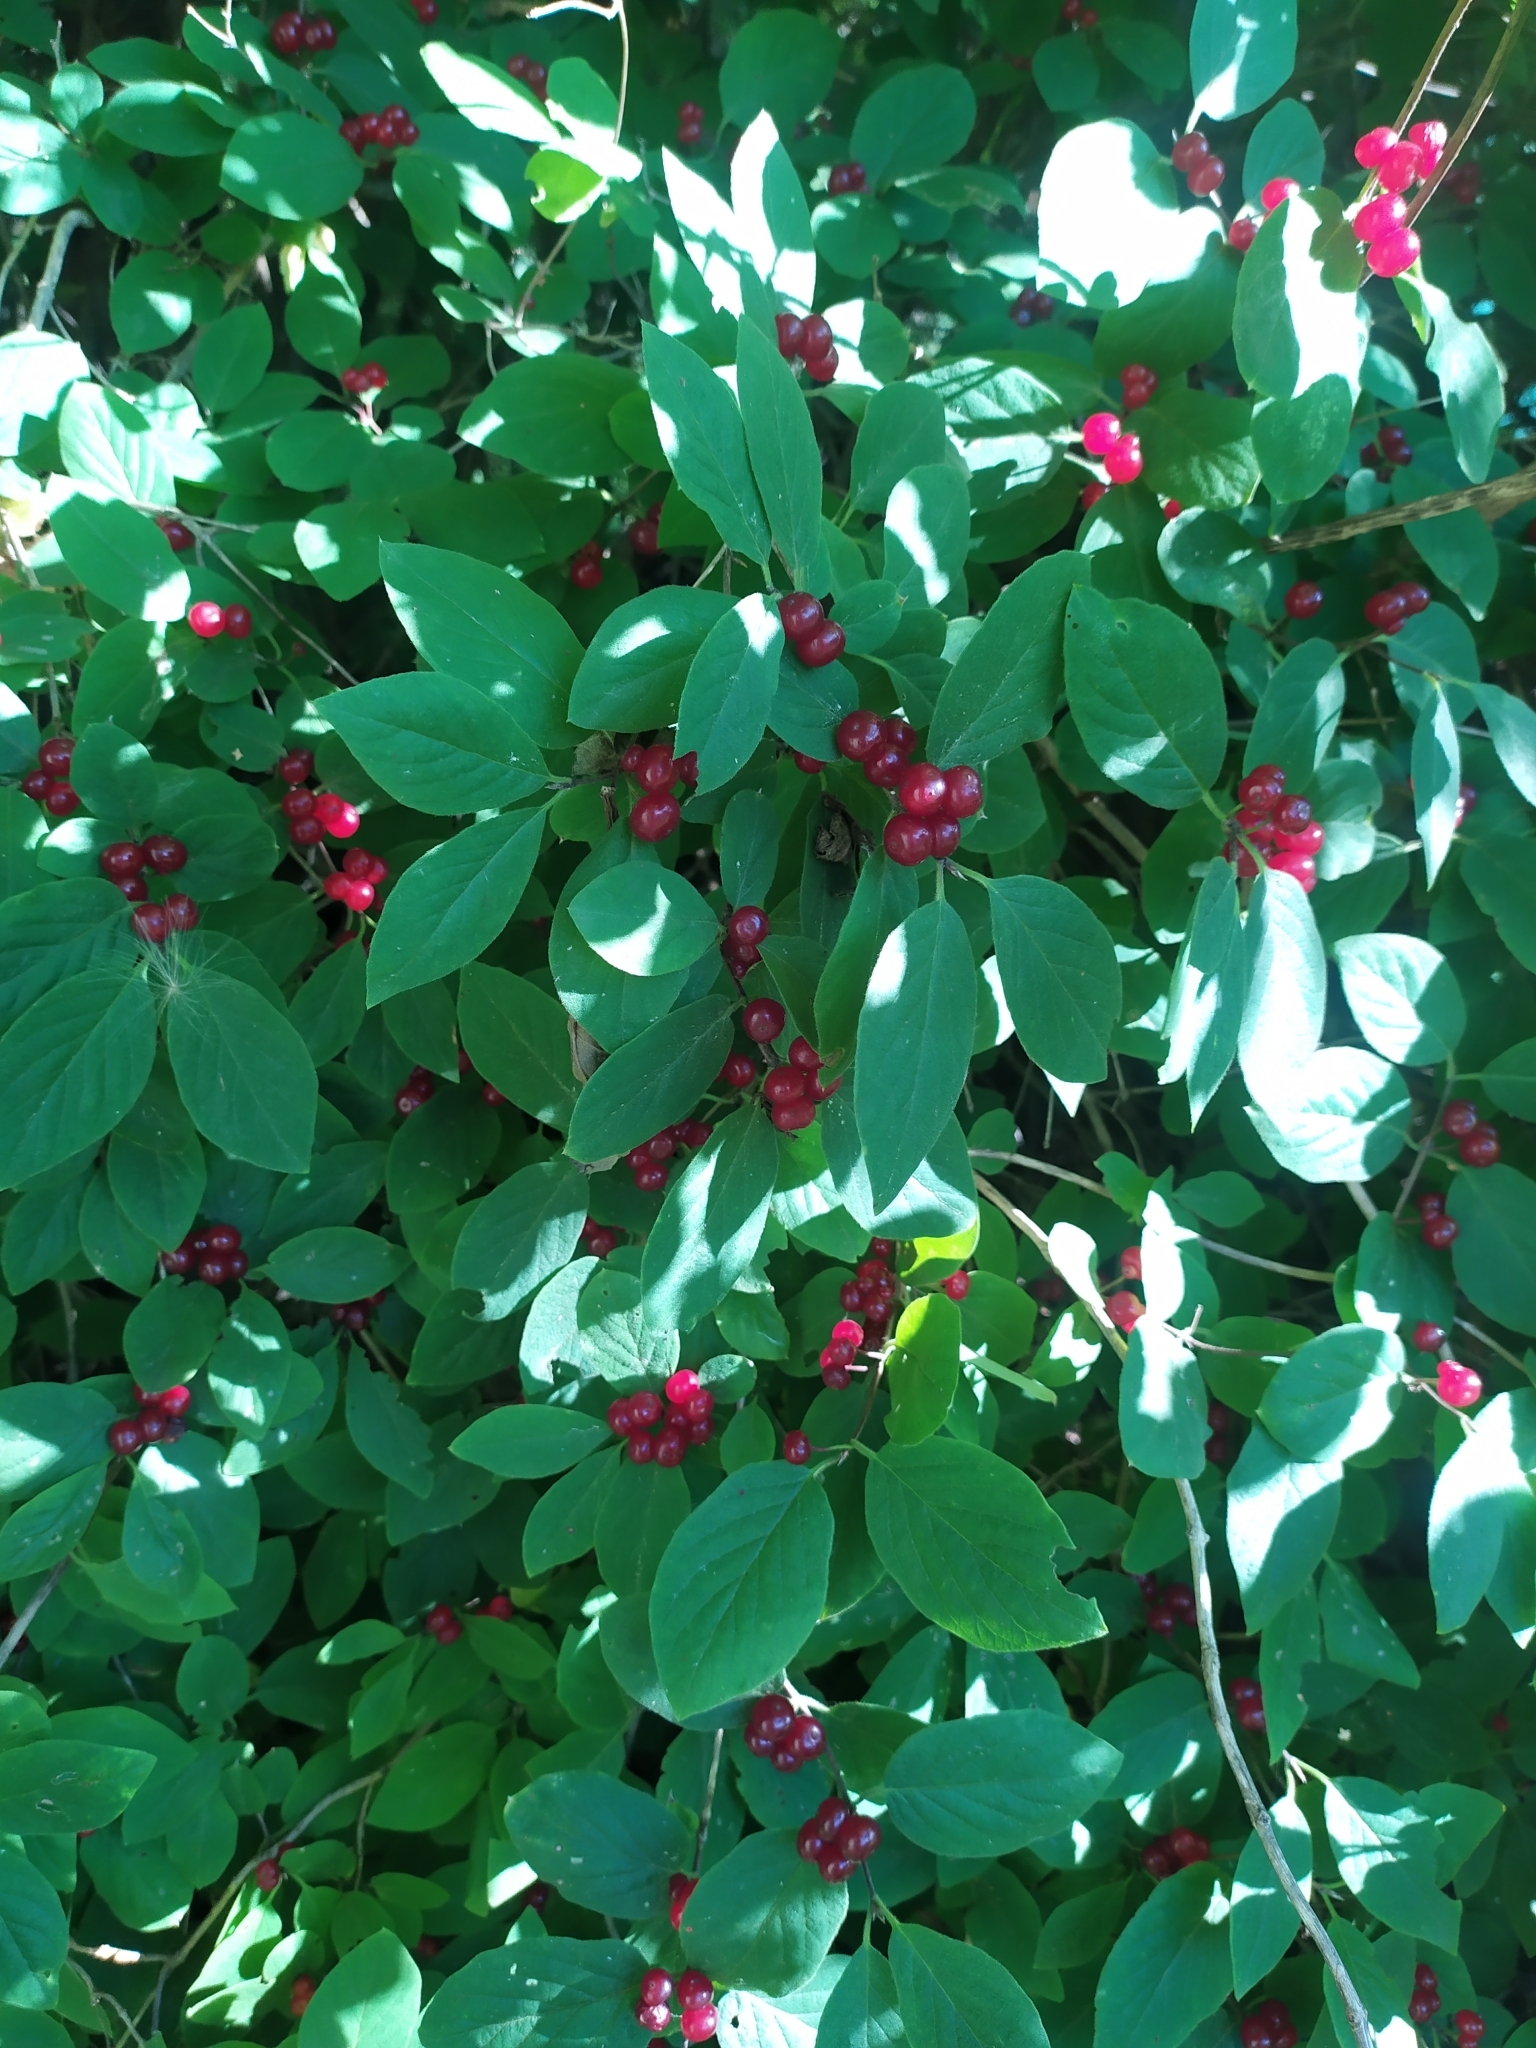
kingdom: Plantae
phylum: Tracheophyta
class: Magnoliopsida
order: Dipsacales
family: Caprifoliaceae
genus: Lonicera
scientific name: Lonicera xylosteum
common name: Fly honeysuckle
